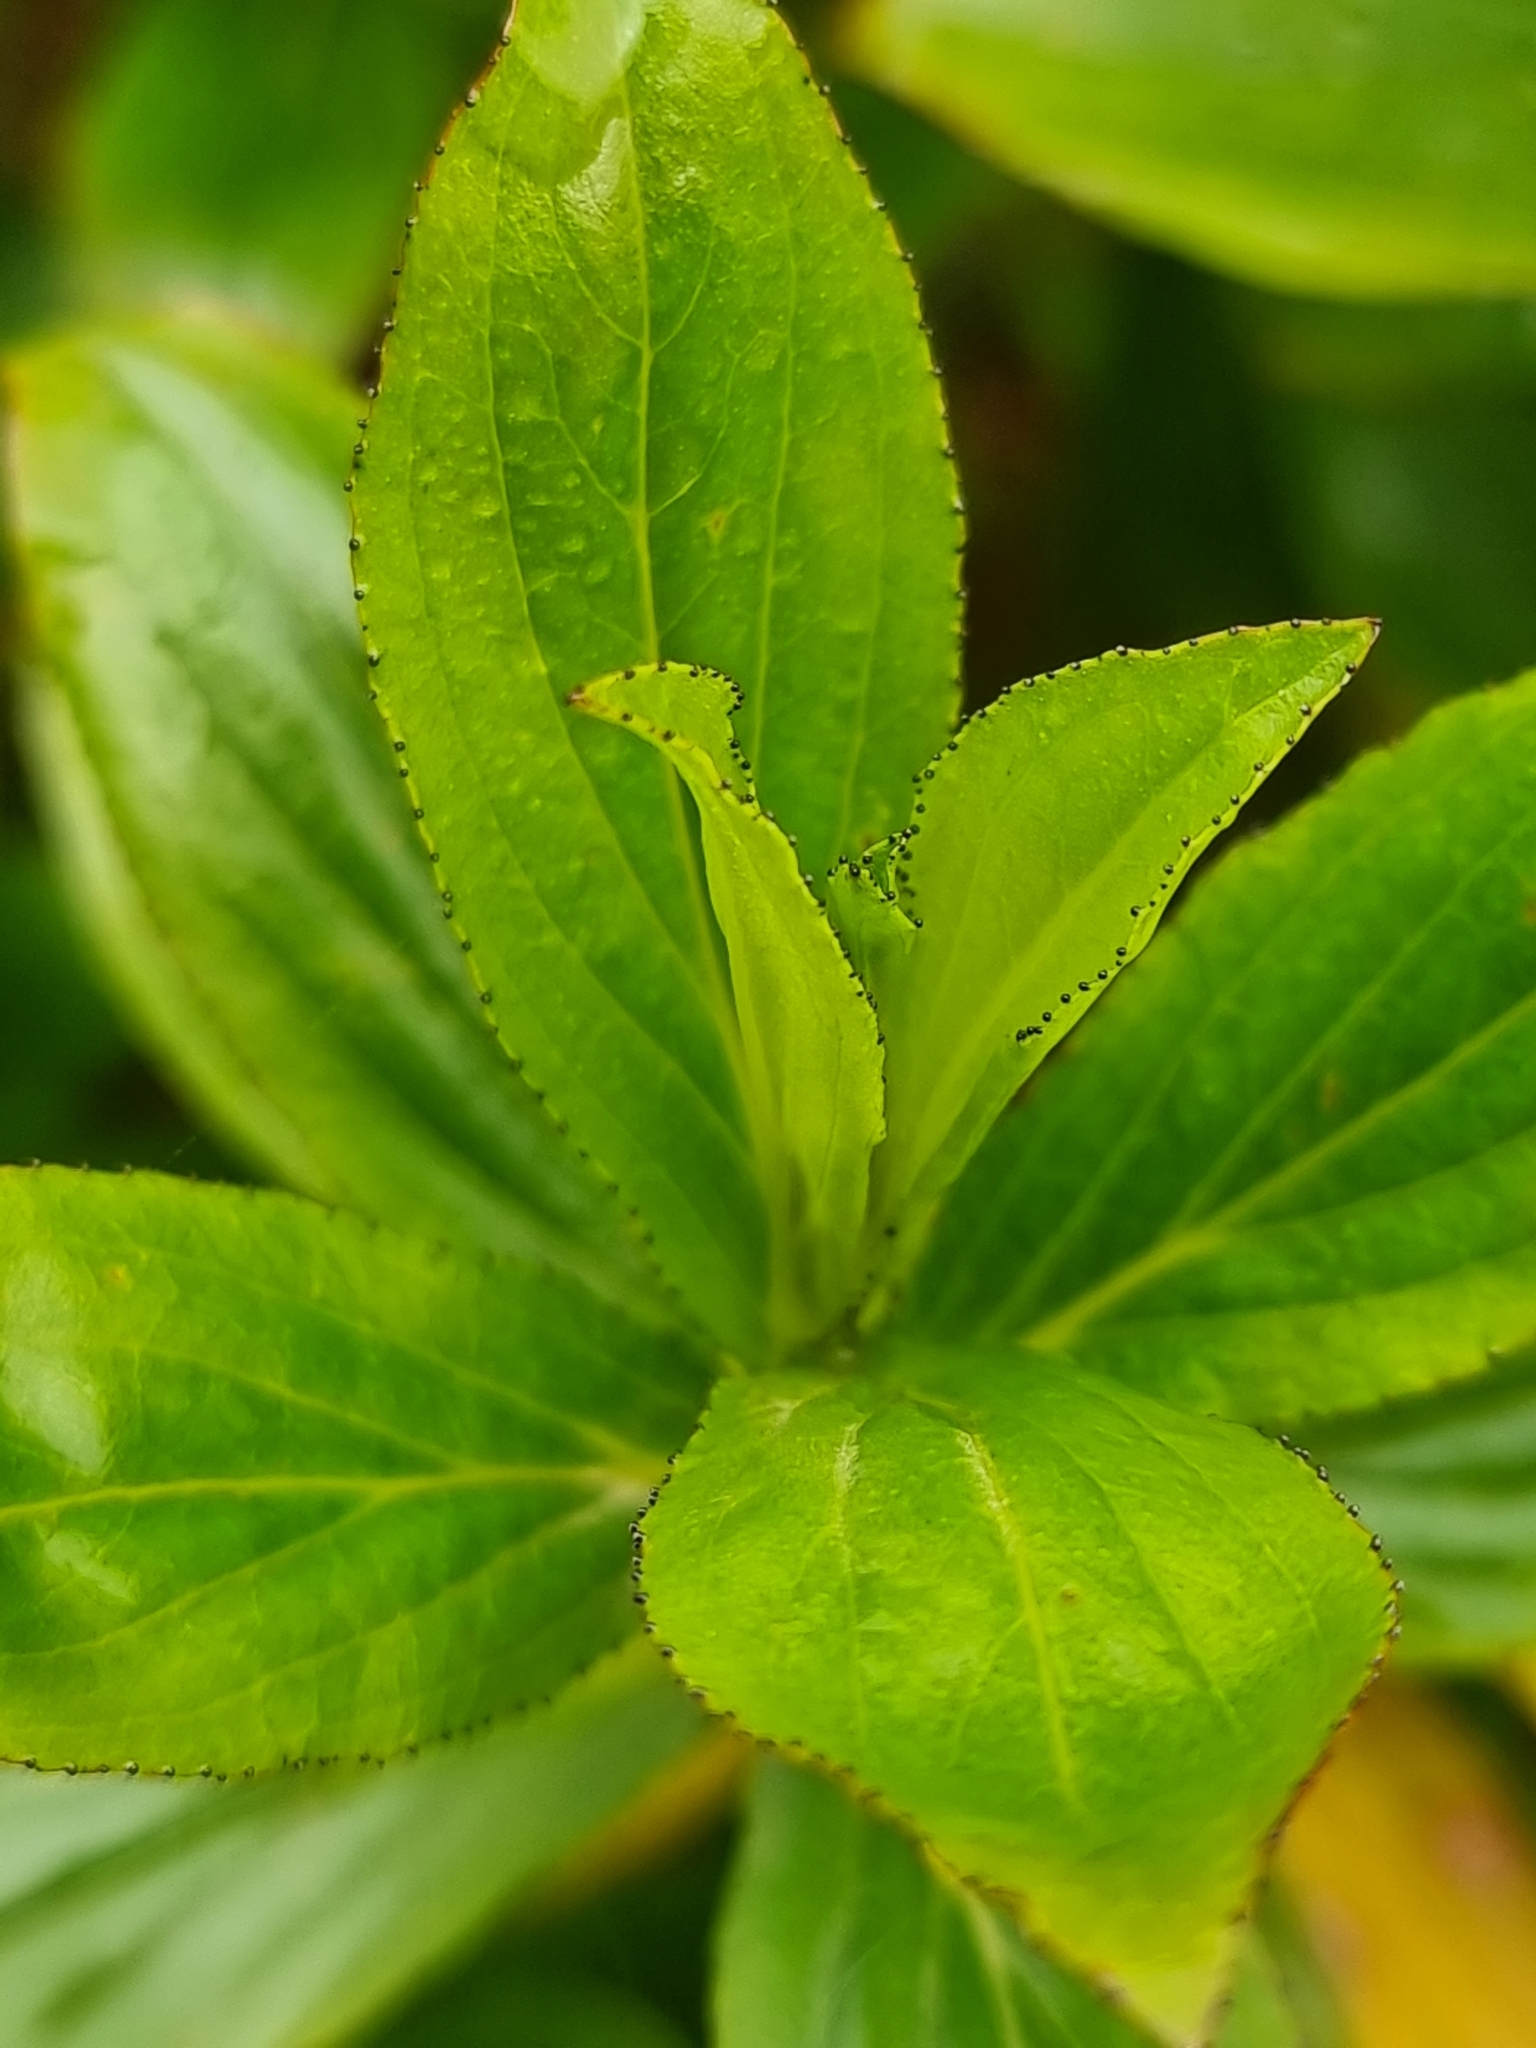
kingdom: Plantae
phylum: Tracheophyta
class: Magnoliopsida
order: Malpighiales
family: Hypericaceae
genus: Hypericum
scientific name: Hypericum glandulosum
